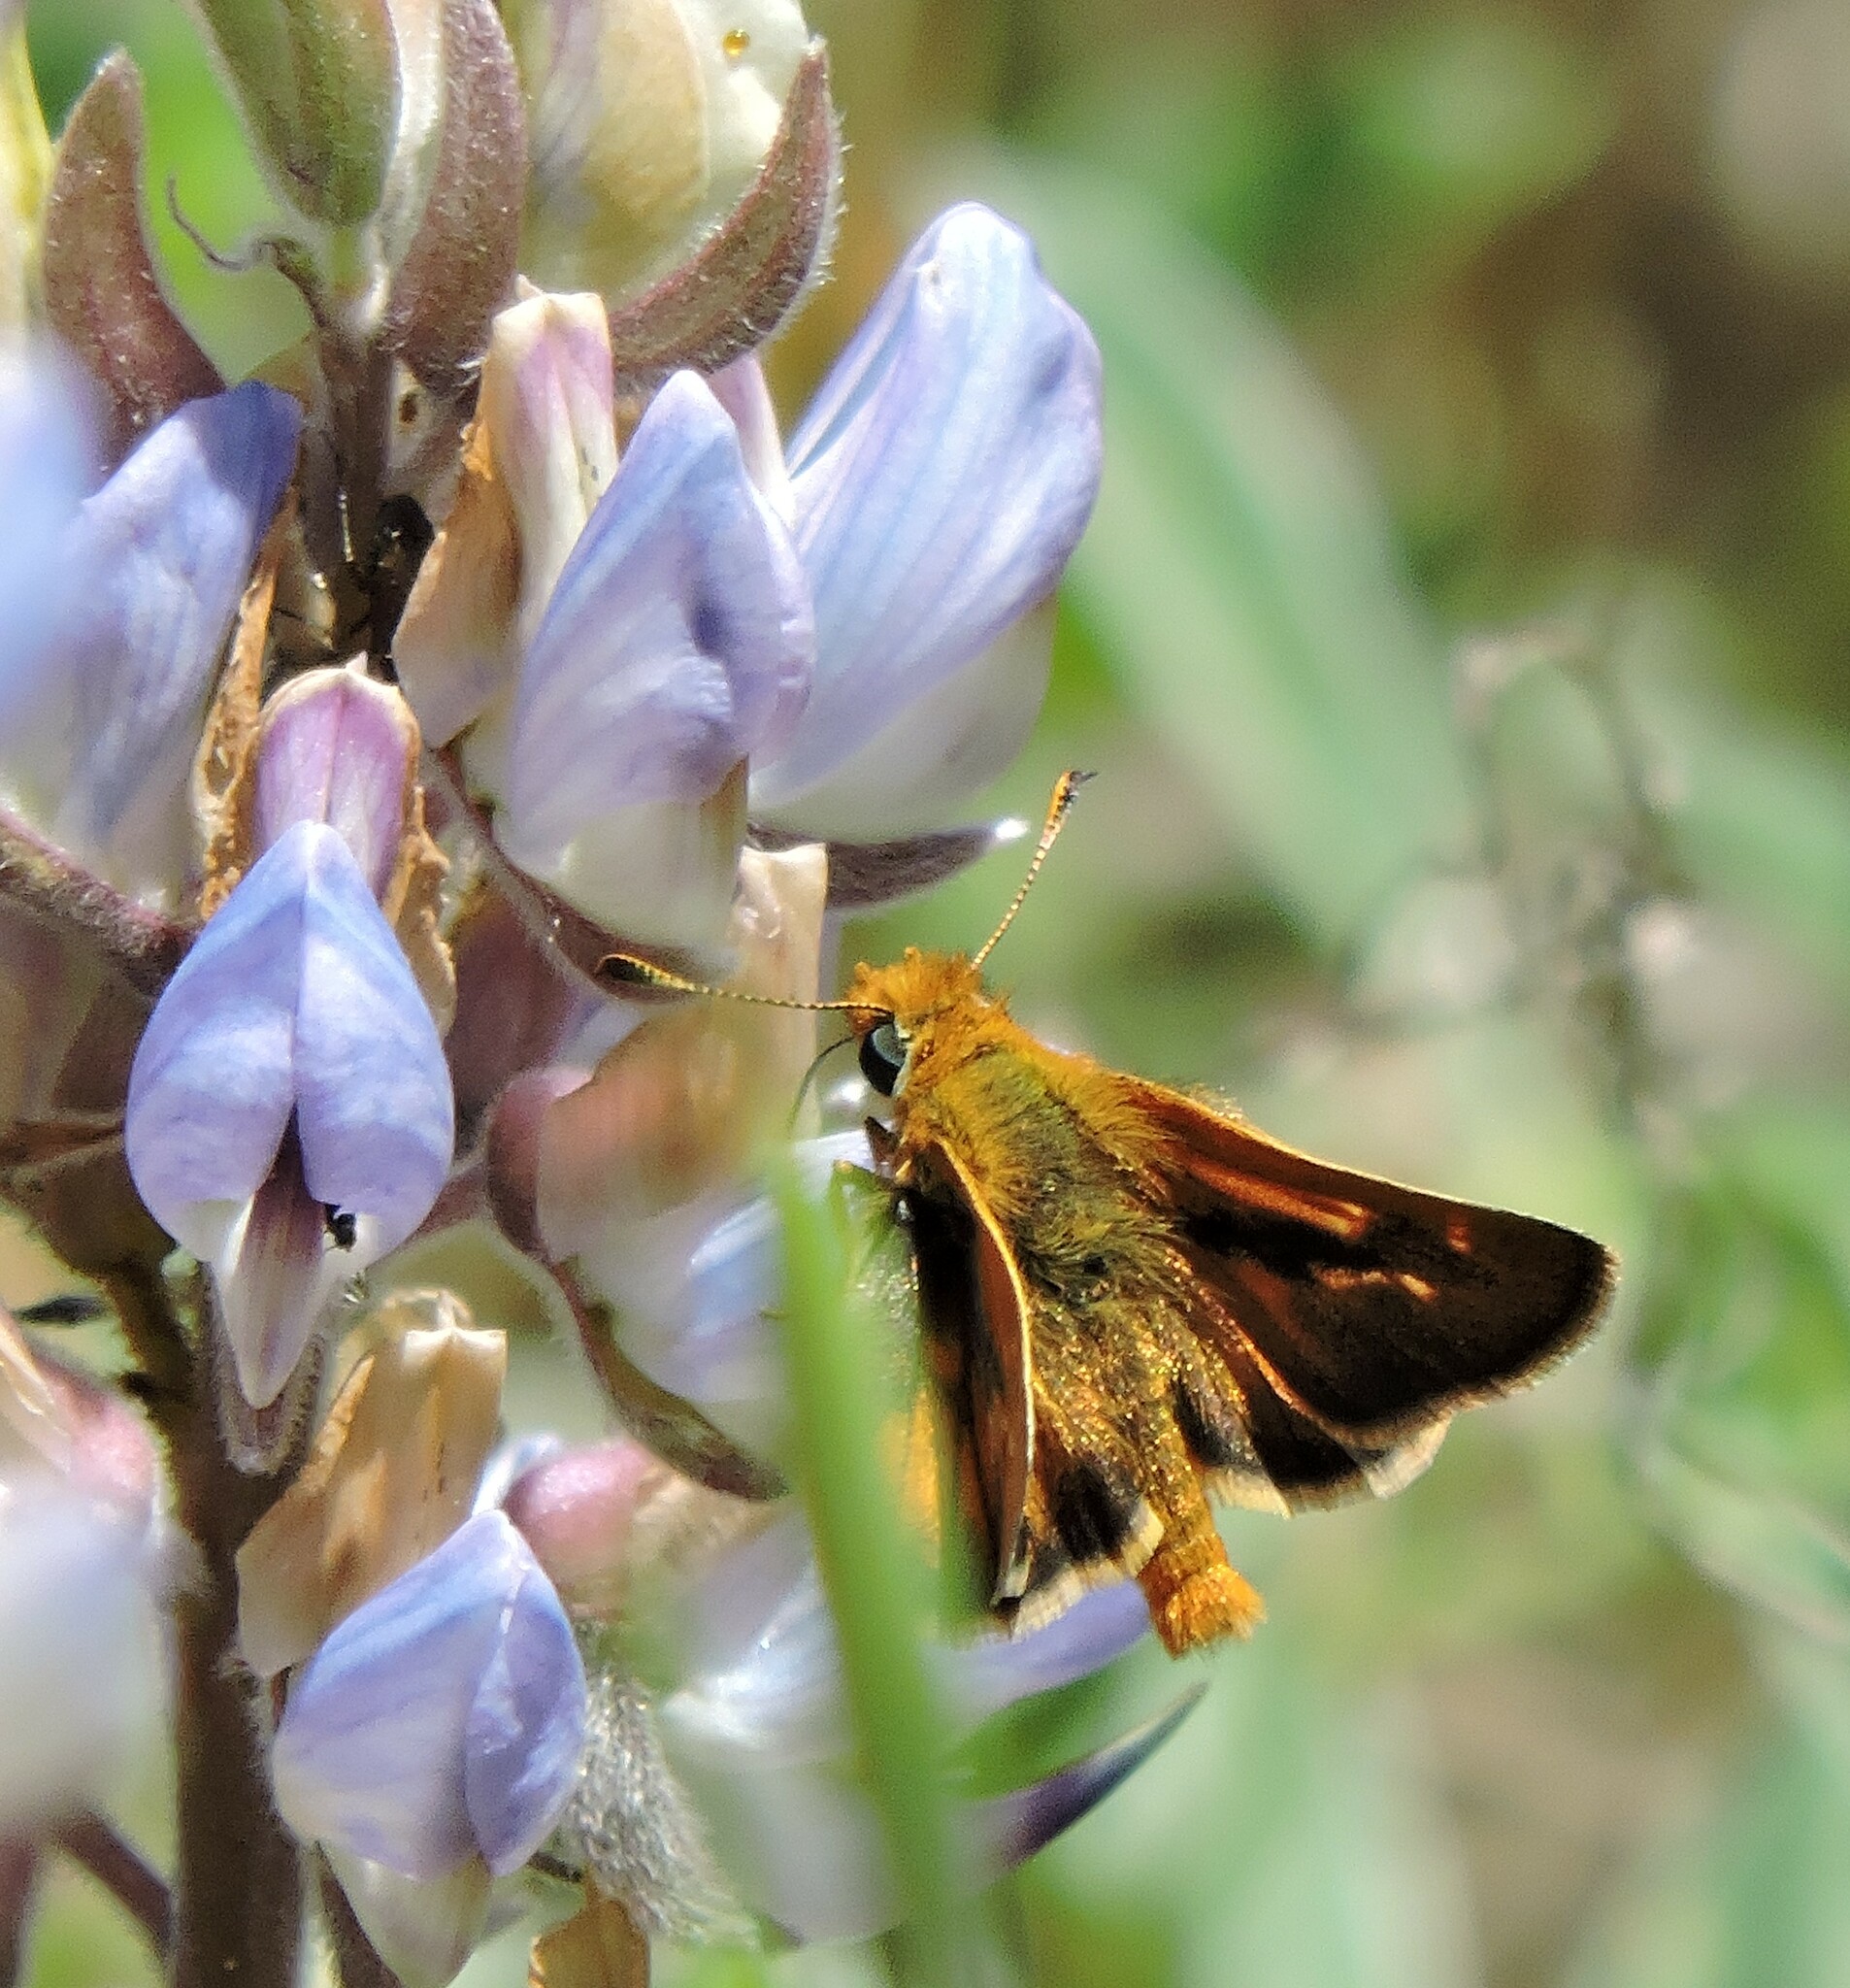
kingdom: Animalia
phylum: Arthropoda
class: Insecta
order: Lepidoptera
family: Hesperiidae
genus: Ochlodes
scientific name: Ochlodes agricola
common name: Rural skipper
